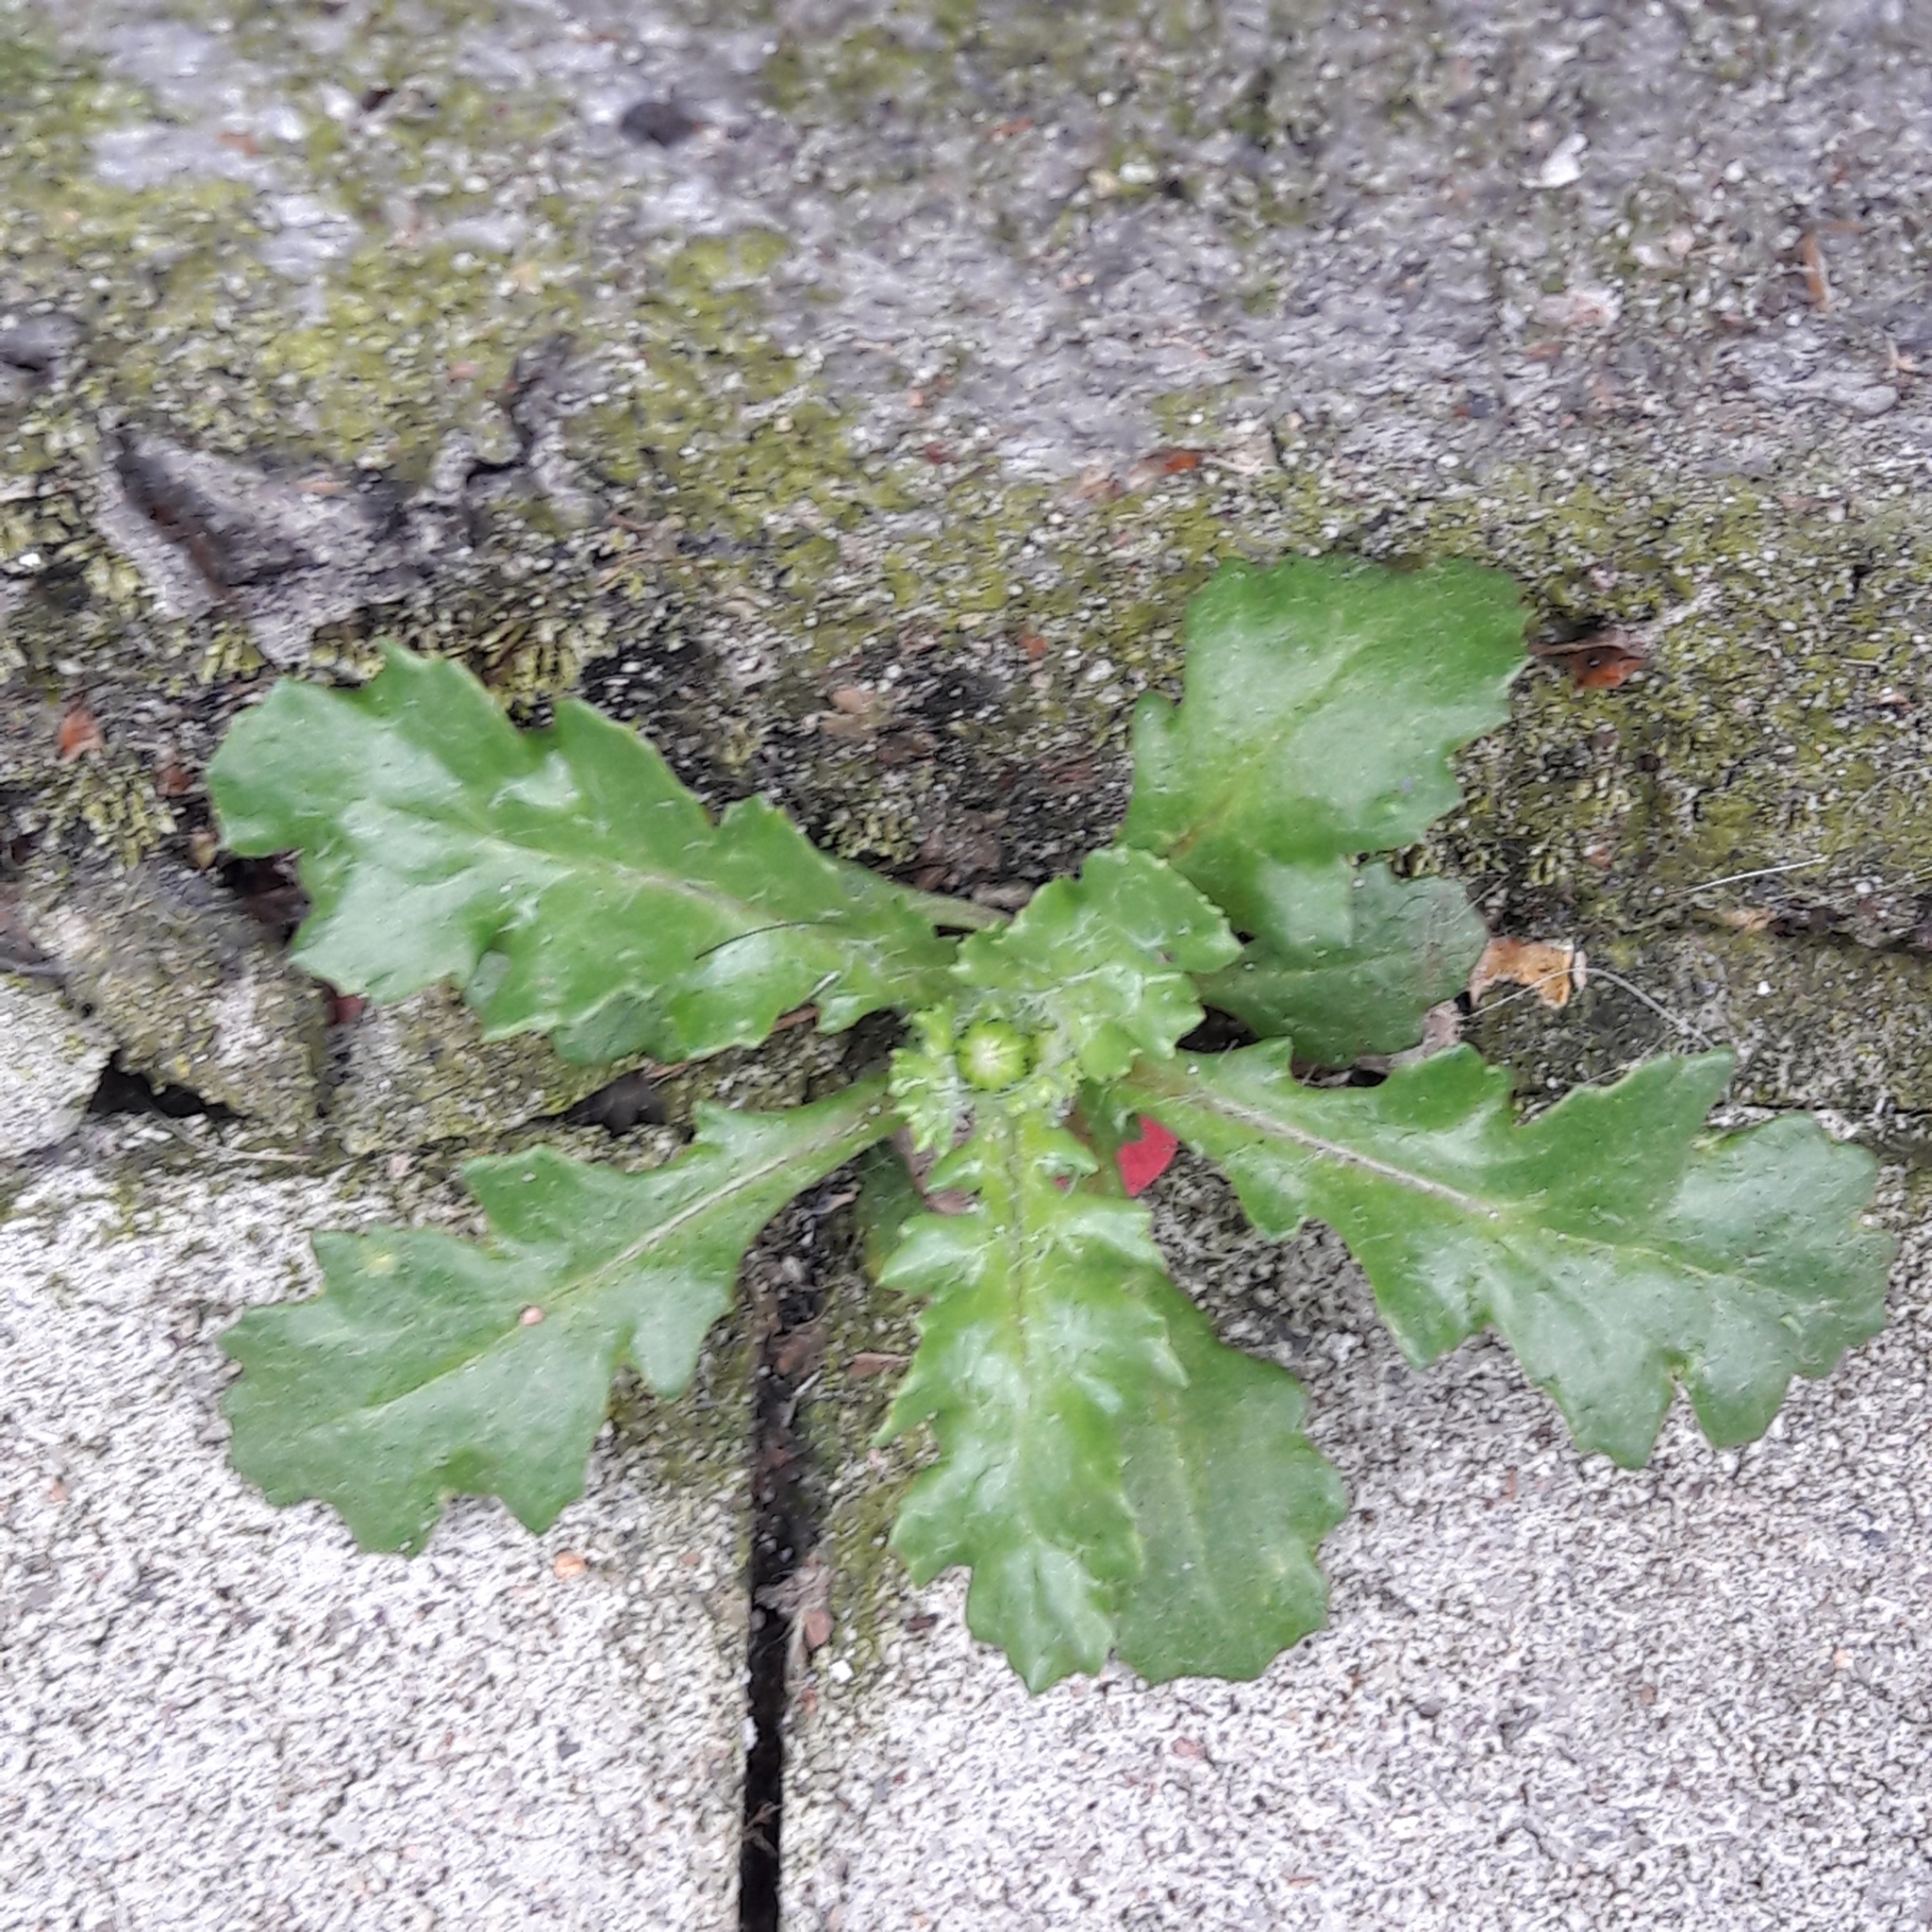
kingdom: Plantae
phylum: Tracheophyta
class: Magnoliopsida
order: Asterales
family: Asteraceae
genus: Senecio
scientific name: Senecio vulgaris
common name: Old-man-in-the-spring
